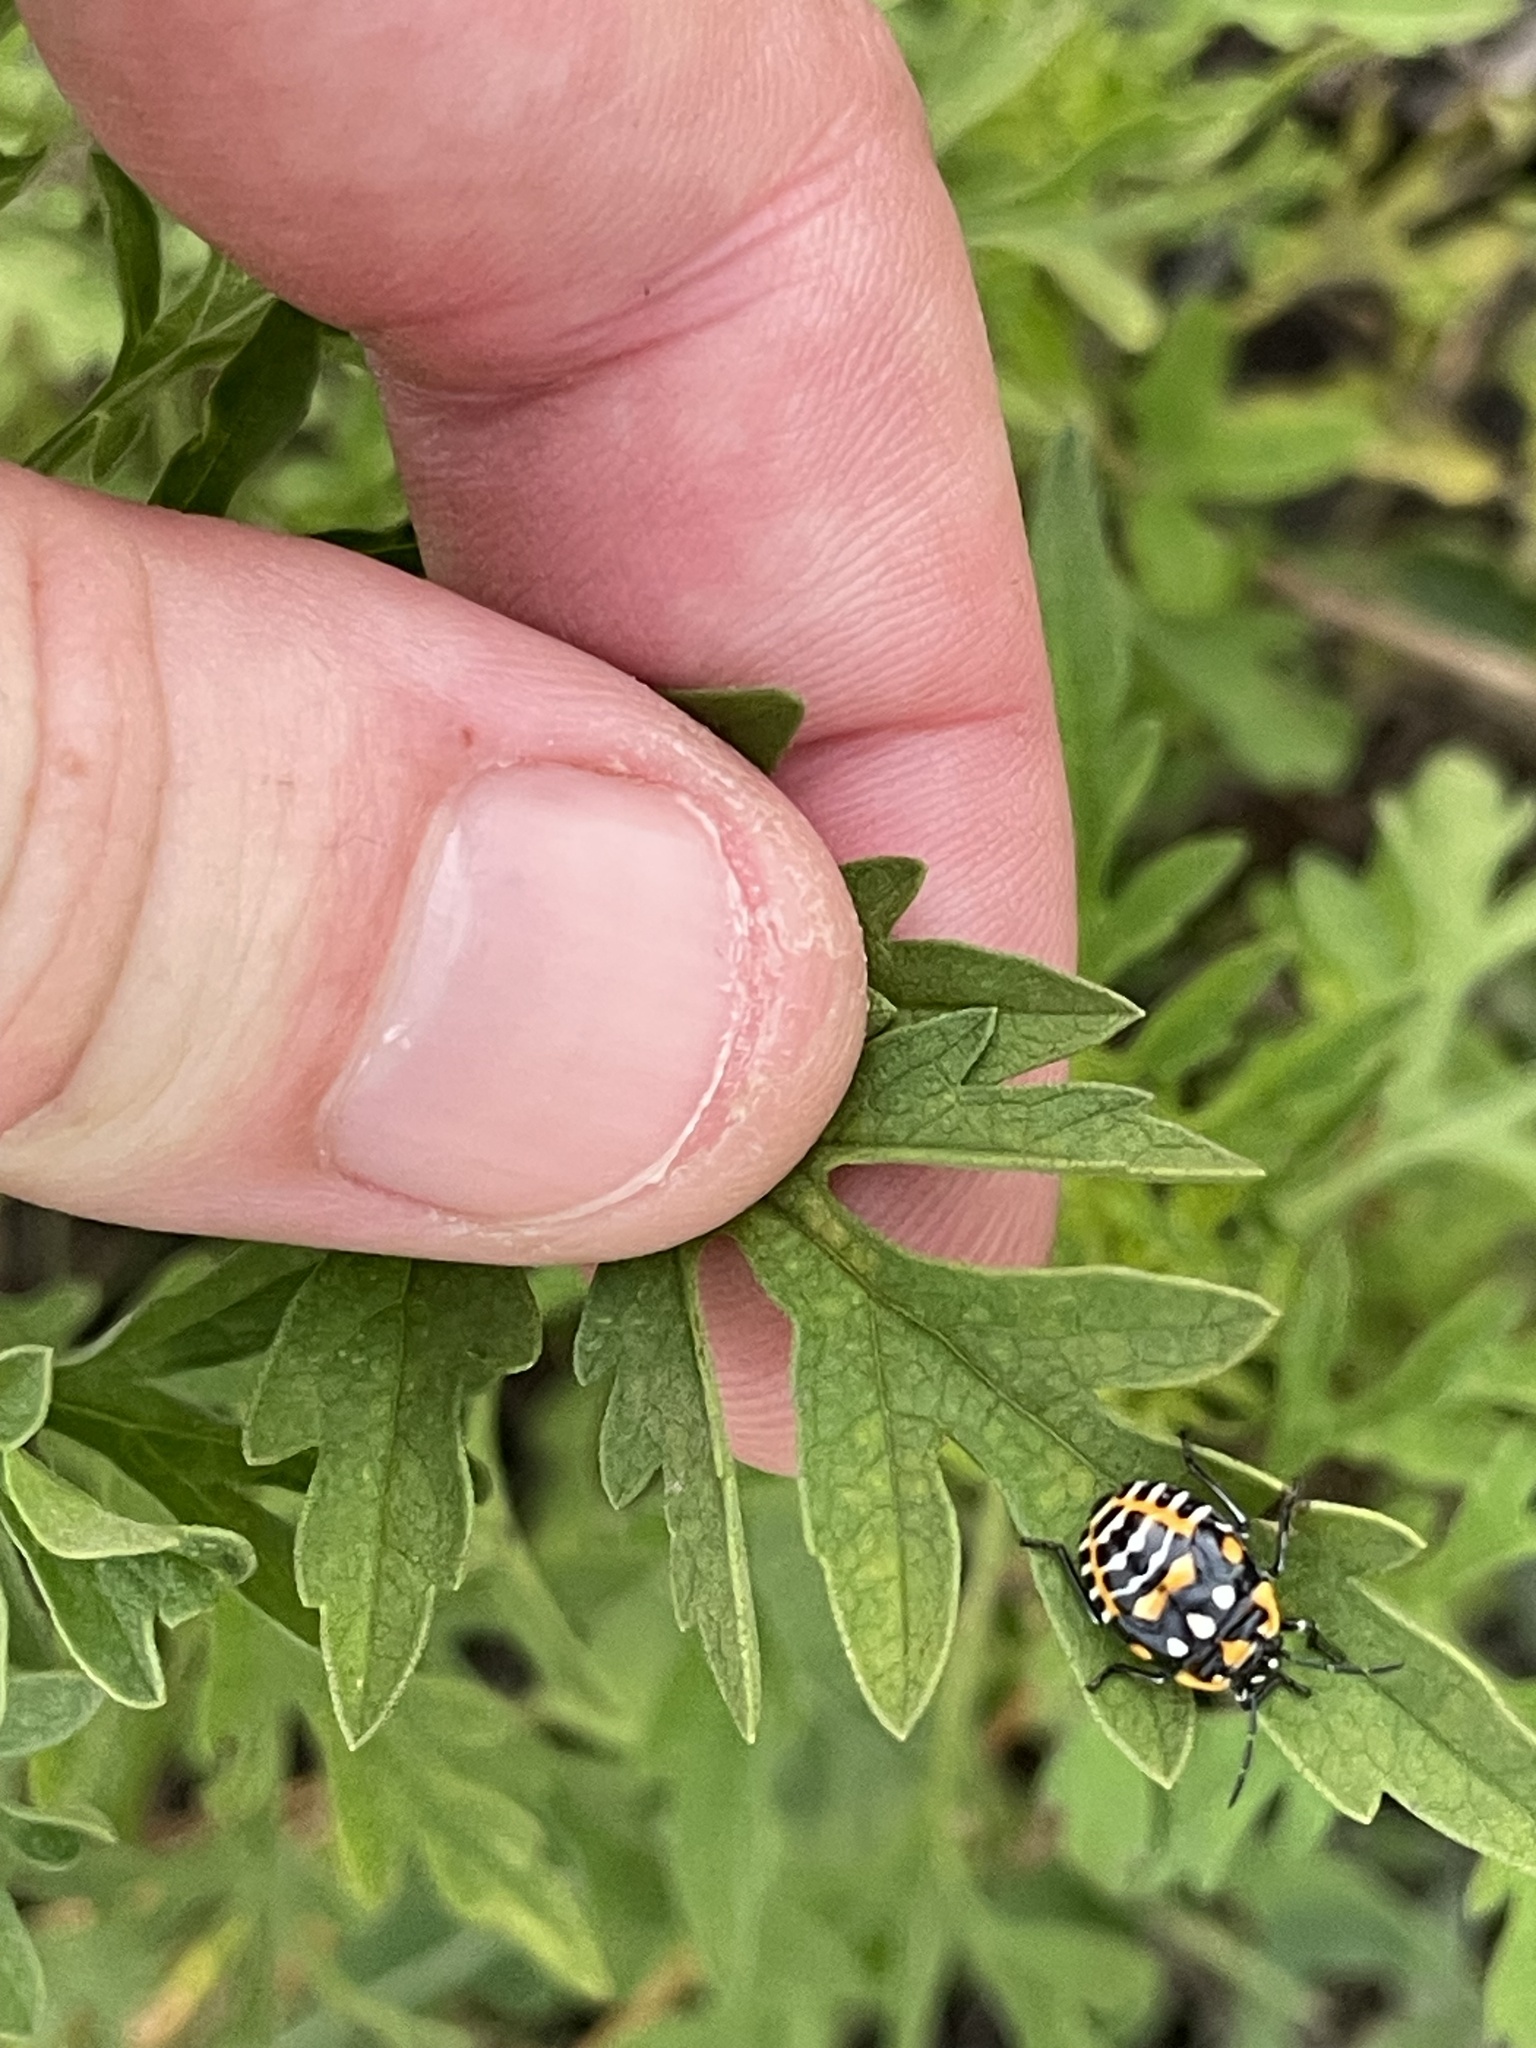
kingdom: Animalia
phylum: Arthropoda
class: Insecta
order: Hemiptera
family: Pentatomidae
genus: Murgantia
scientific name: Murgantia histrionica
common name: Harlequin bug
